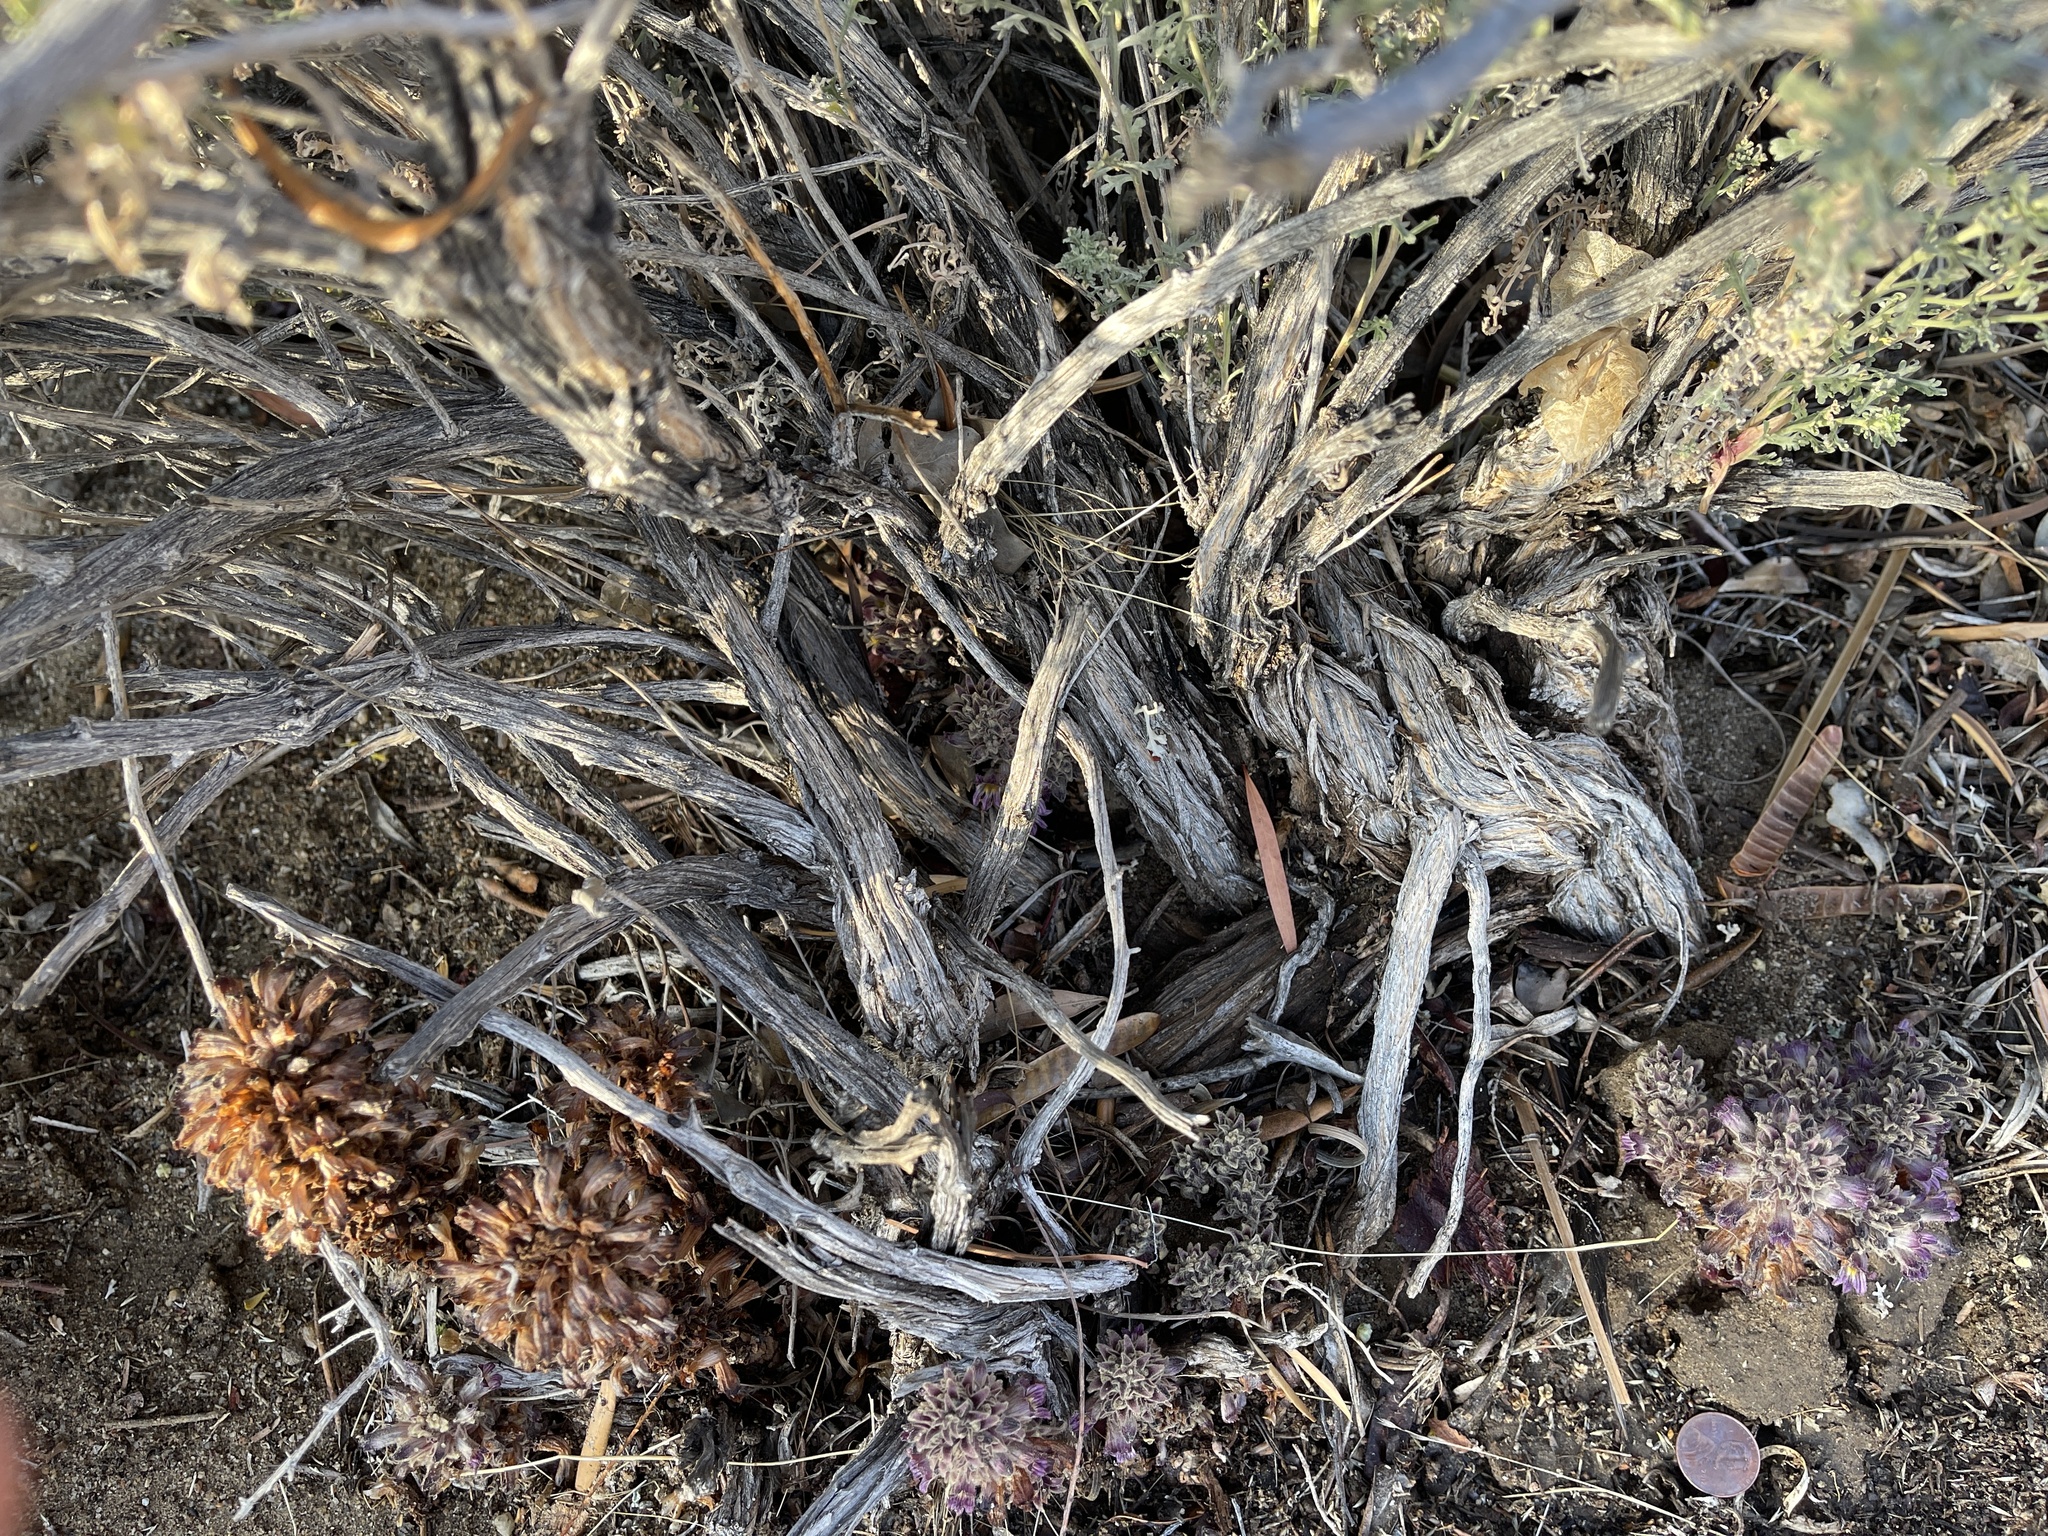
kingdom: Plantae
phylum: Tracheophyta
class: Magnoliopsida
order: Lamiales
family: Orobanchaceae
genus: Aphyllon
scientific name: Aphyllon cooperi
